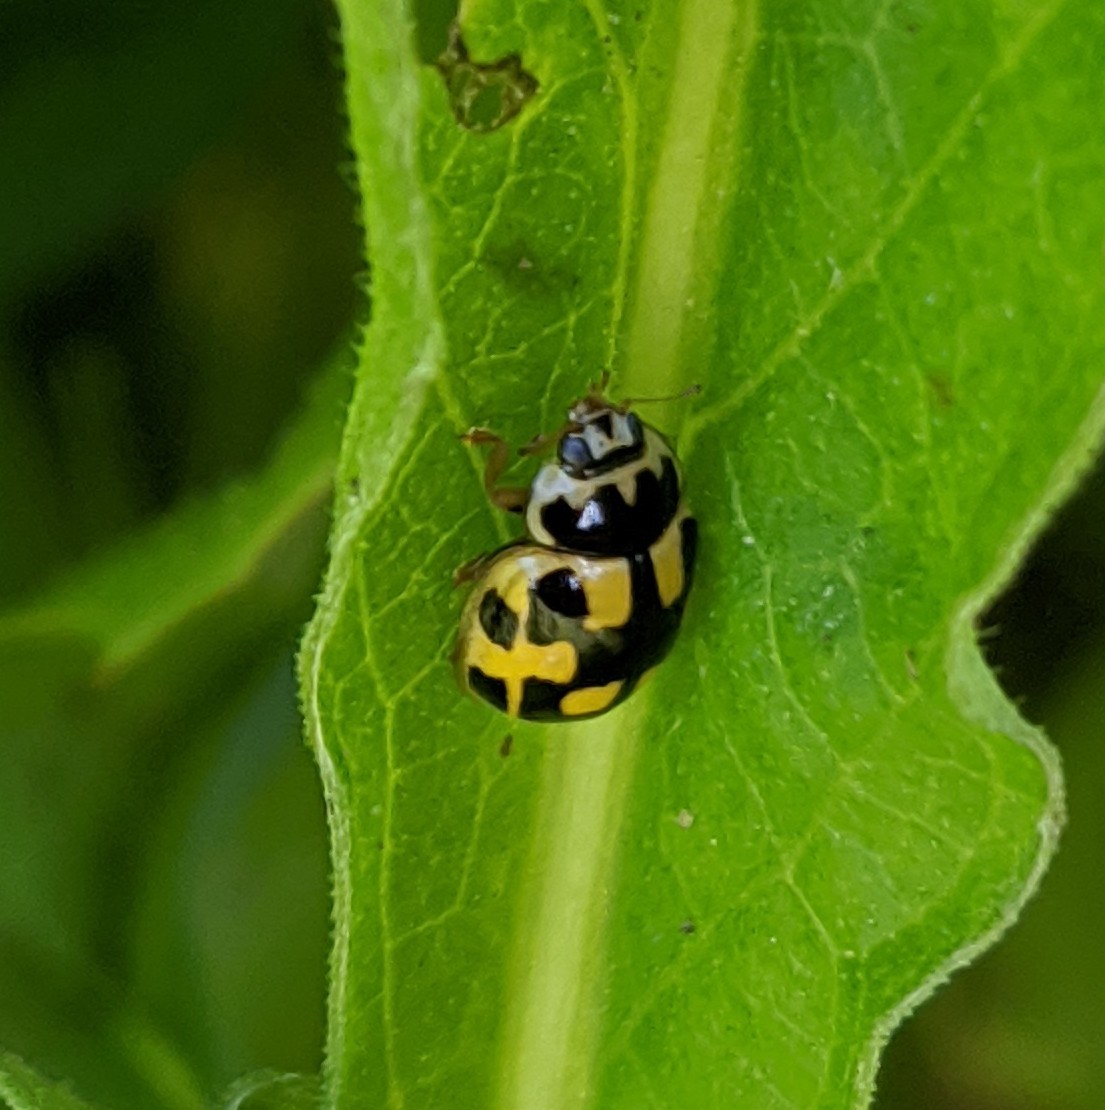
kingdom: Animalia
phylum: Arthropoda
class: Insecta
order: Coleoptera
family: Coccinellidae
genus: Propylaea
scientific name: Propylaea quatuordecimpunctata
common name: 14-spotted ladybird beetle
